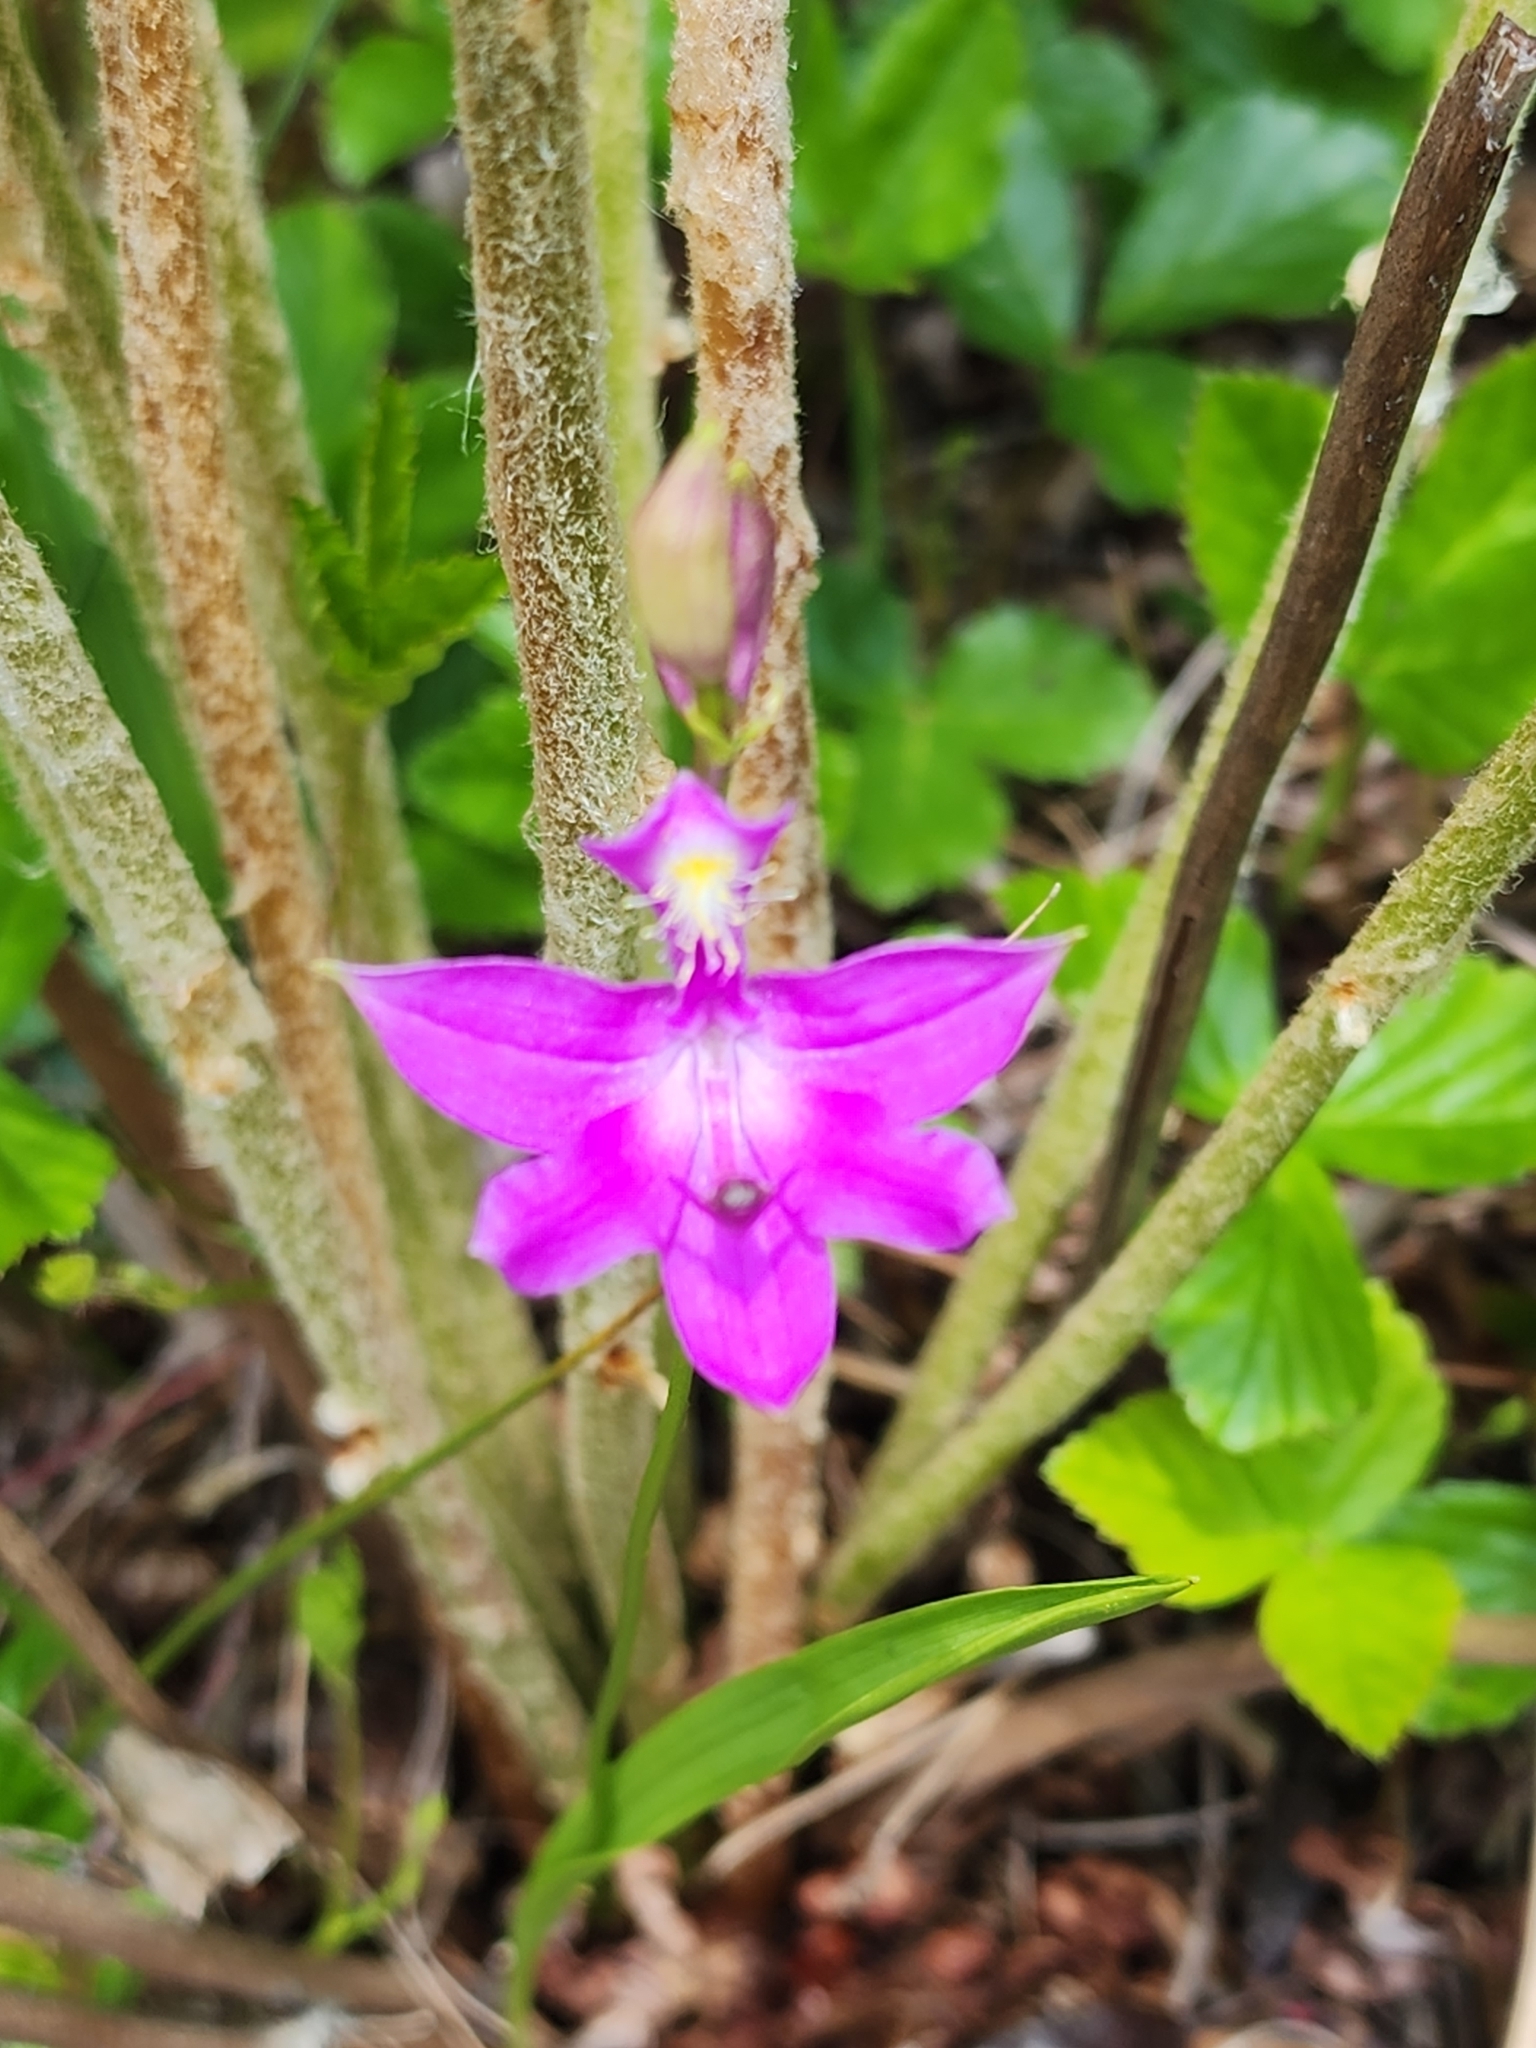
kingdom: Plantae
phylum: Tracheophyta
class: Liliopsida
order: Asparagales
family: Orchidaceae
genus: Calopogon
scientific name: Calopogon tuberosus
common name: Grass-pink
